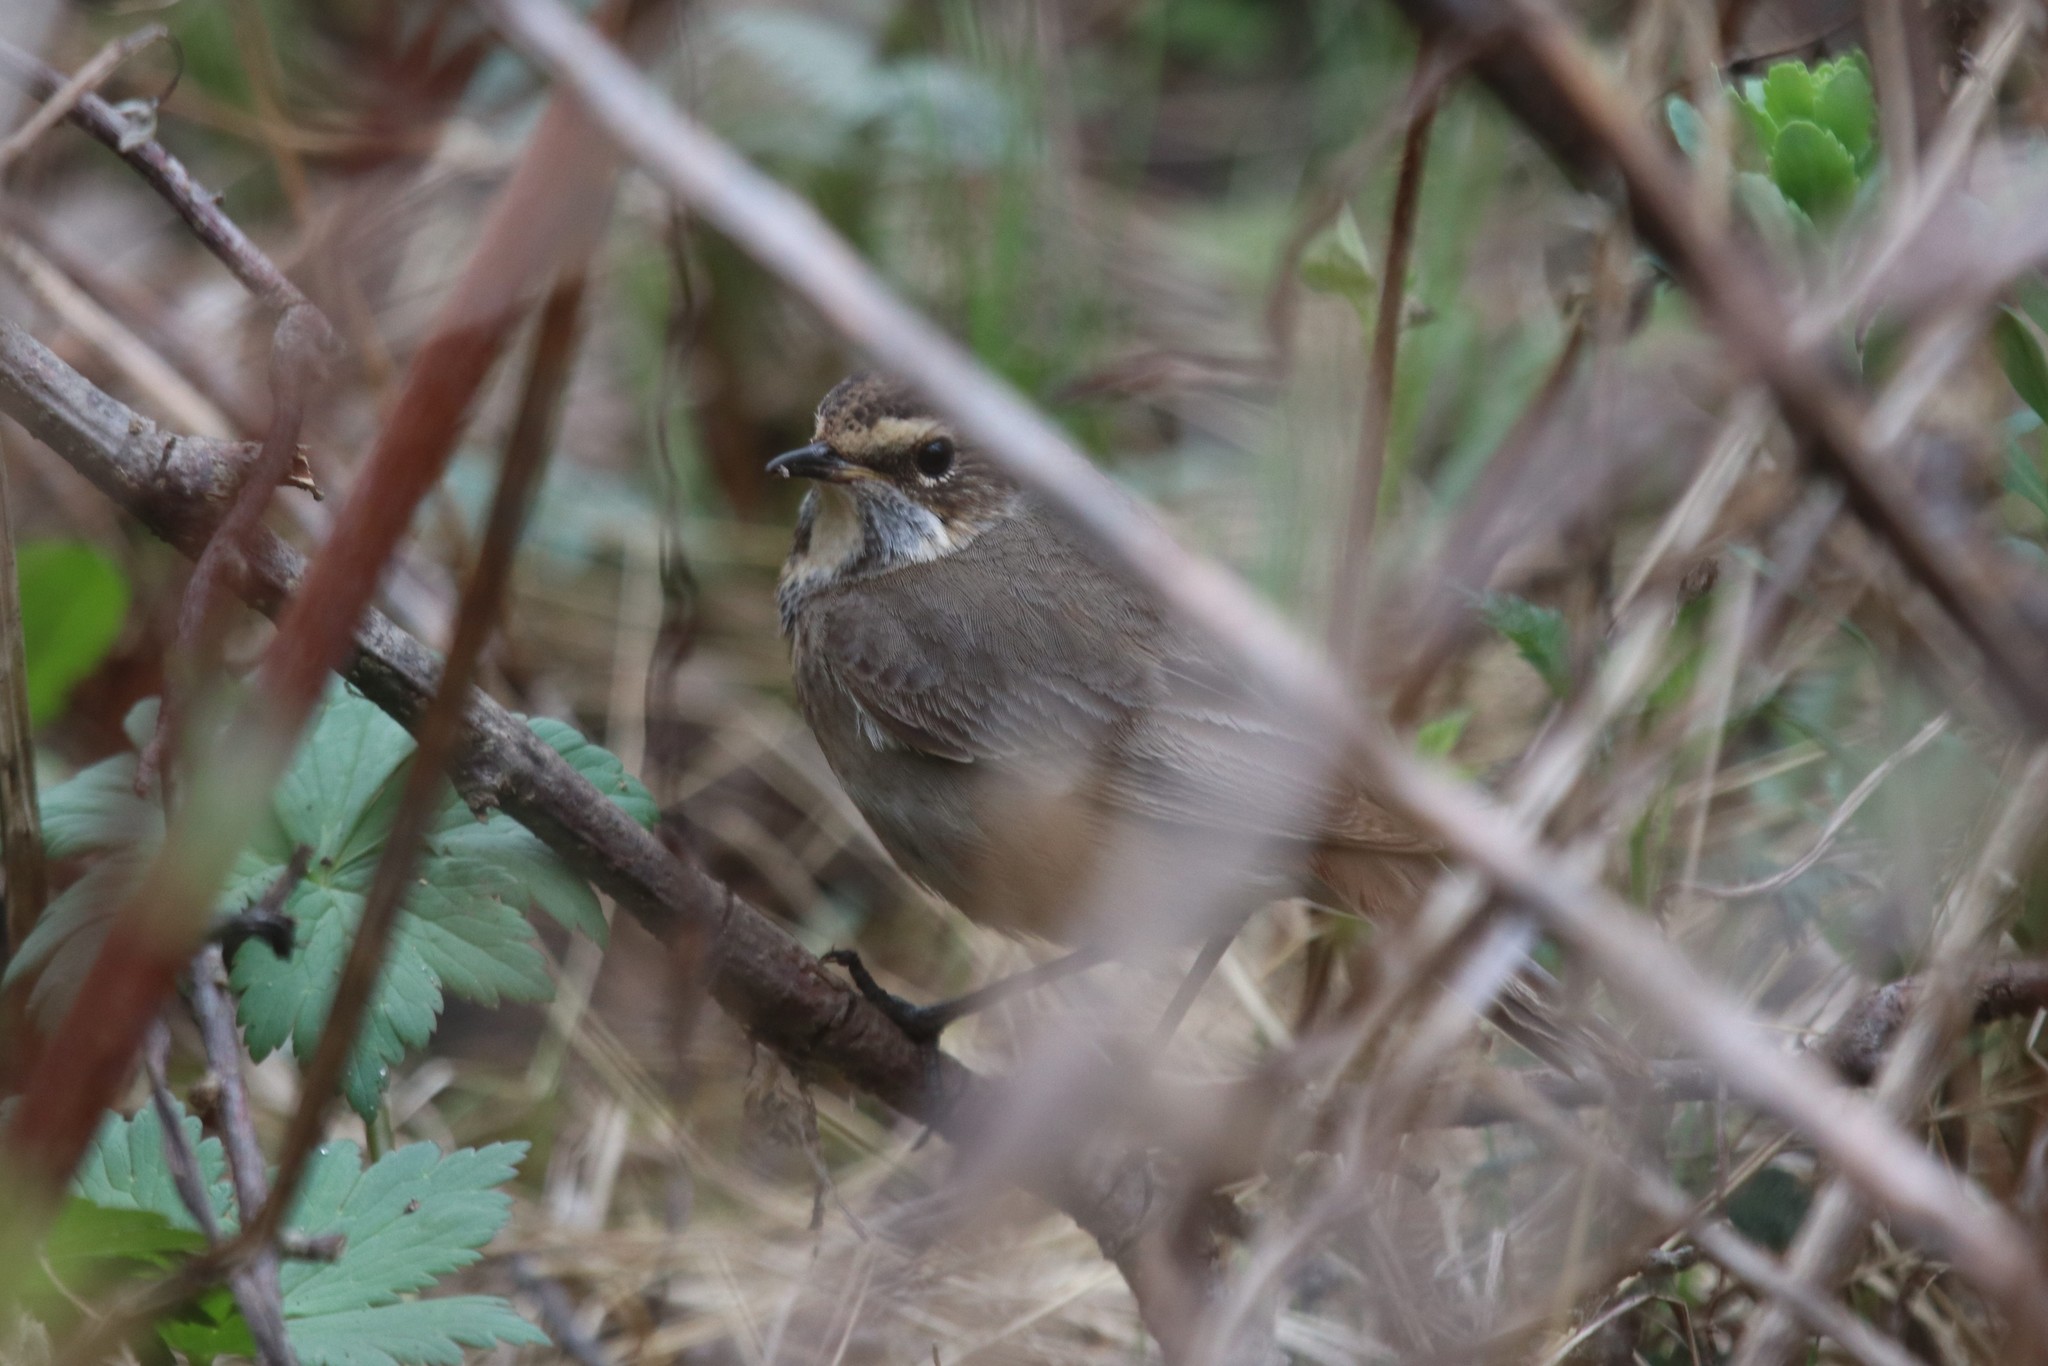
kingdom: Animalia
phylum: Chordata
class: Aves
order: Passeriformes
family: Muscicapidae
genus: Luscinia
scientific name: Luscinia svecica
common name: Bluethroat
